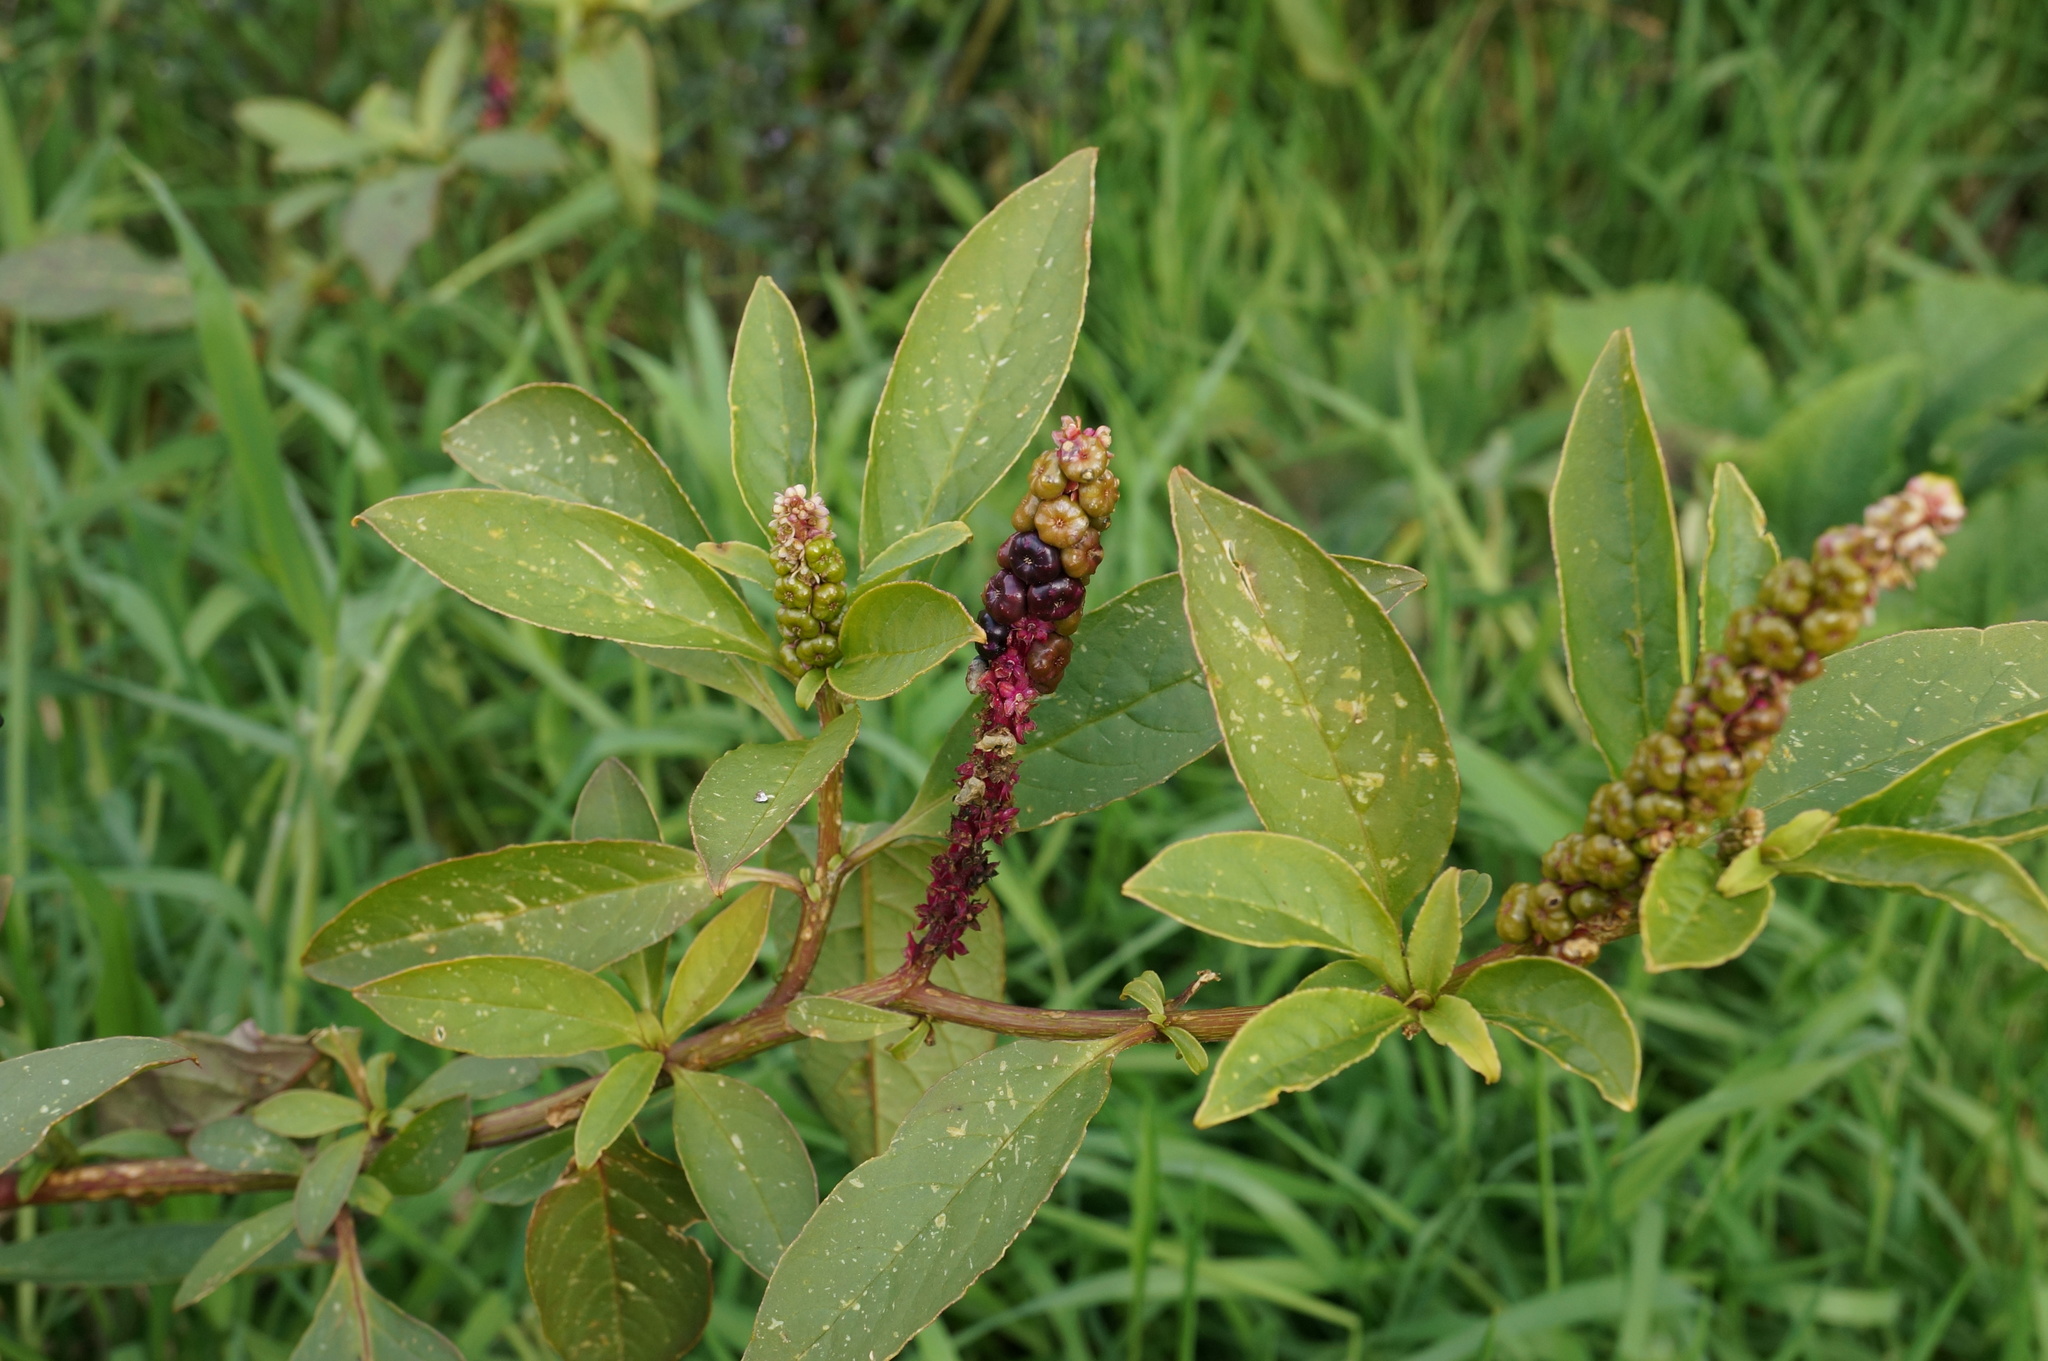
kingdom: Plantae
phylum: Tracheophyta
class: Magnoliopsida
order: Caryophyllales
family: Phytolaccaceae
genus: Phytolacca
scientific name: Phytolacca icosandra
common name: Button pokeweed
